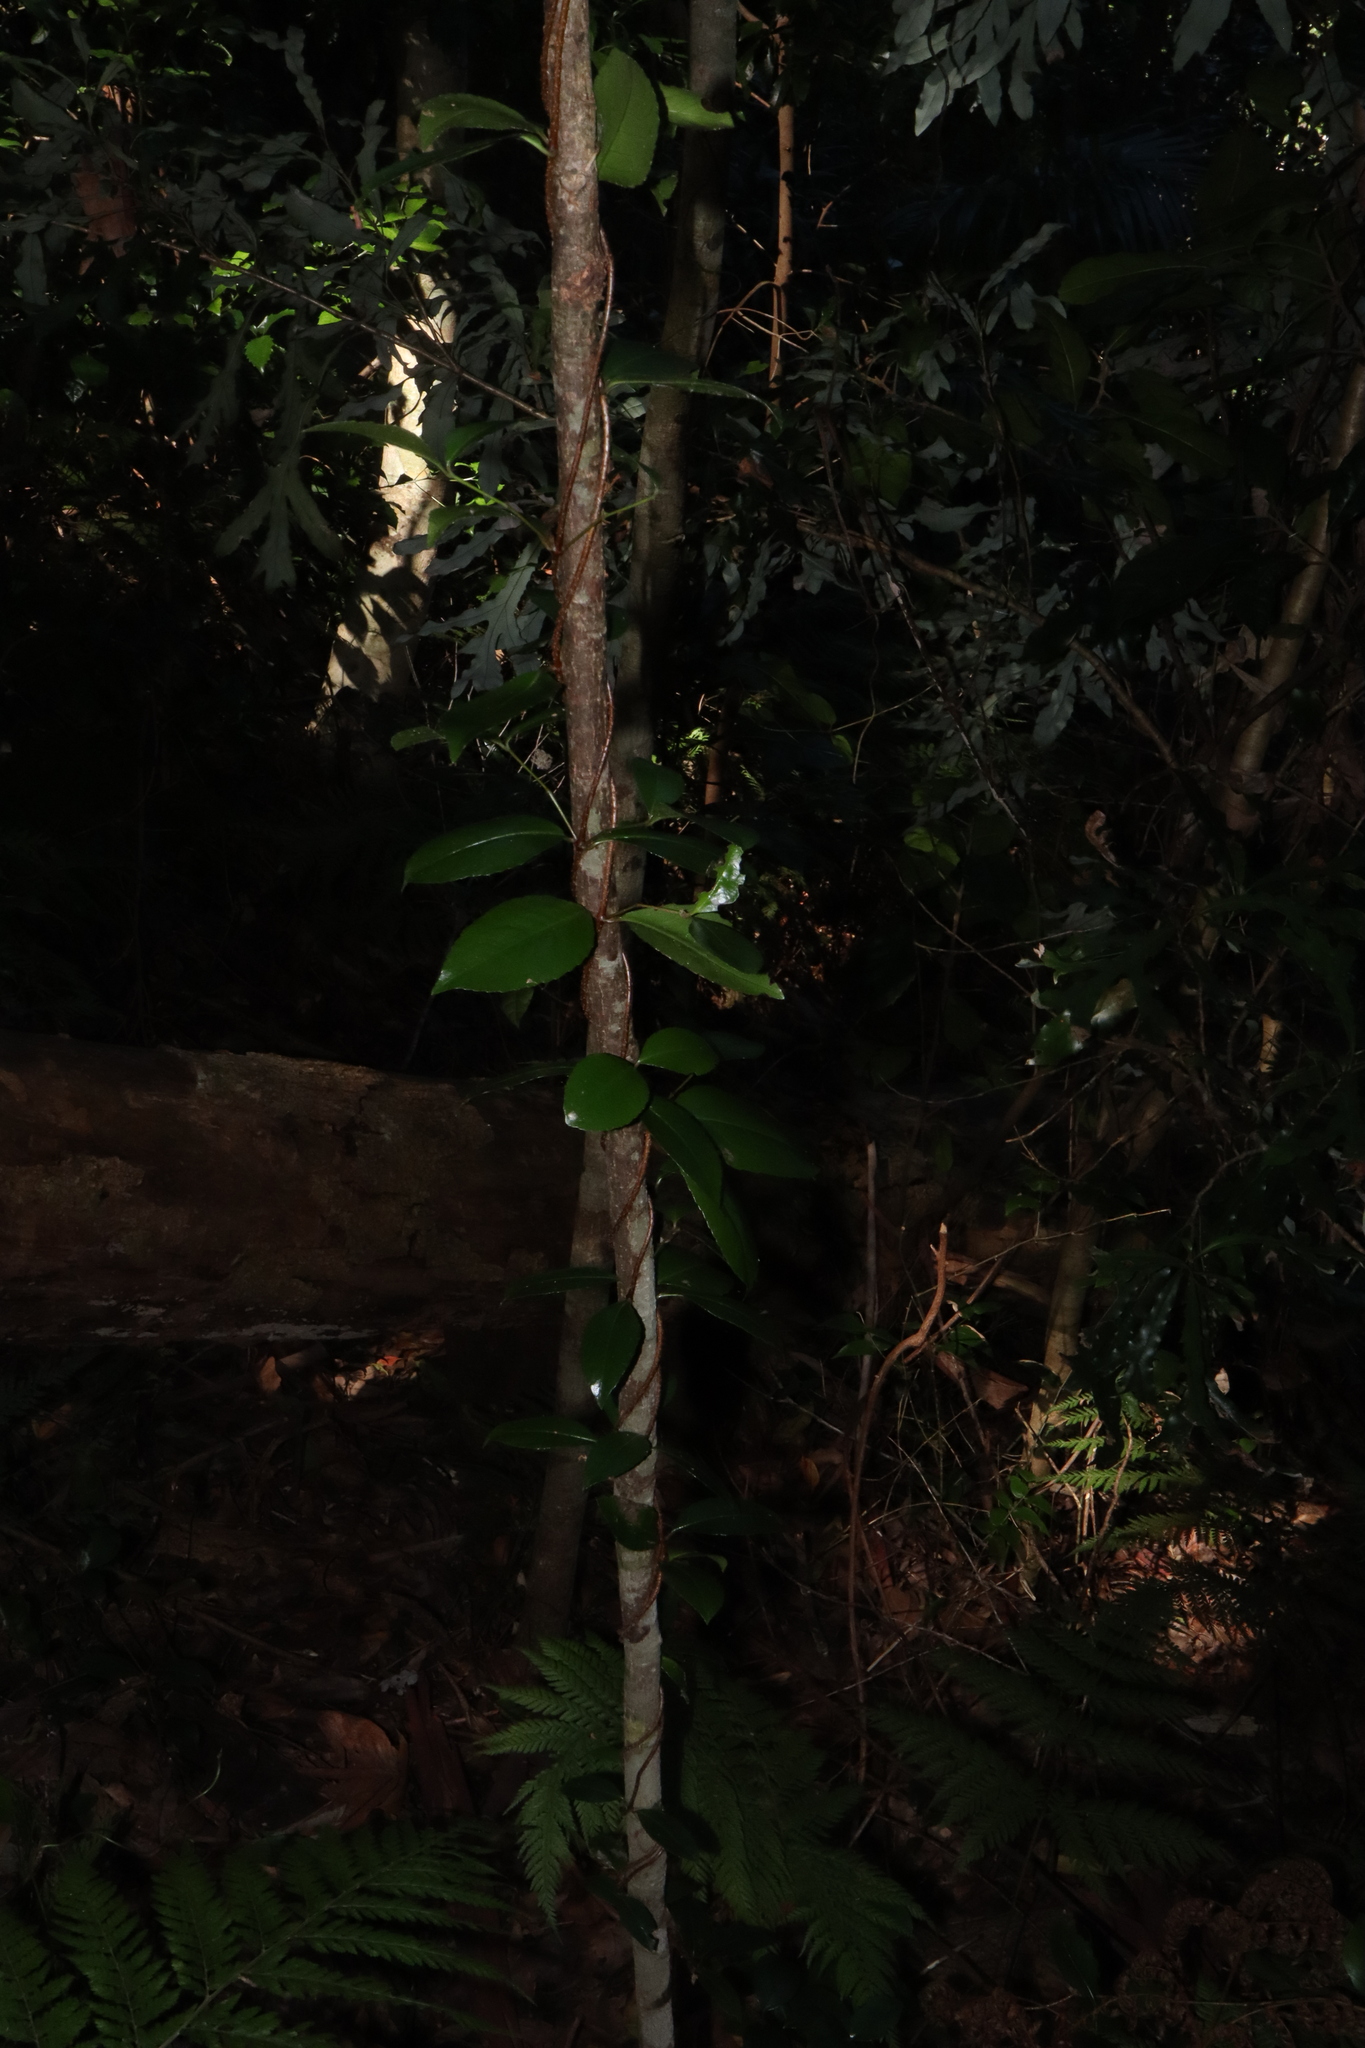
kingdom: Plantae
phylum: Tracheophyta
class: Magnoliopsida
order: Saxifragales
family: Aphanopetalaceae
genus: Aphanopetalum
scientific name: Aphanopetalum resinosum
